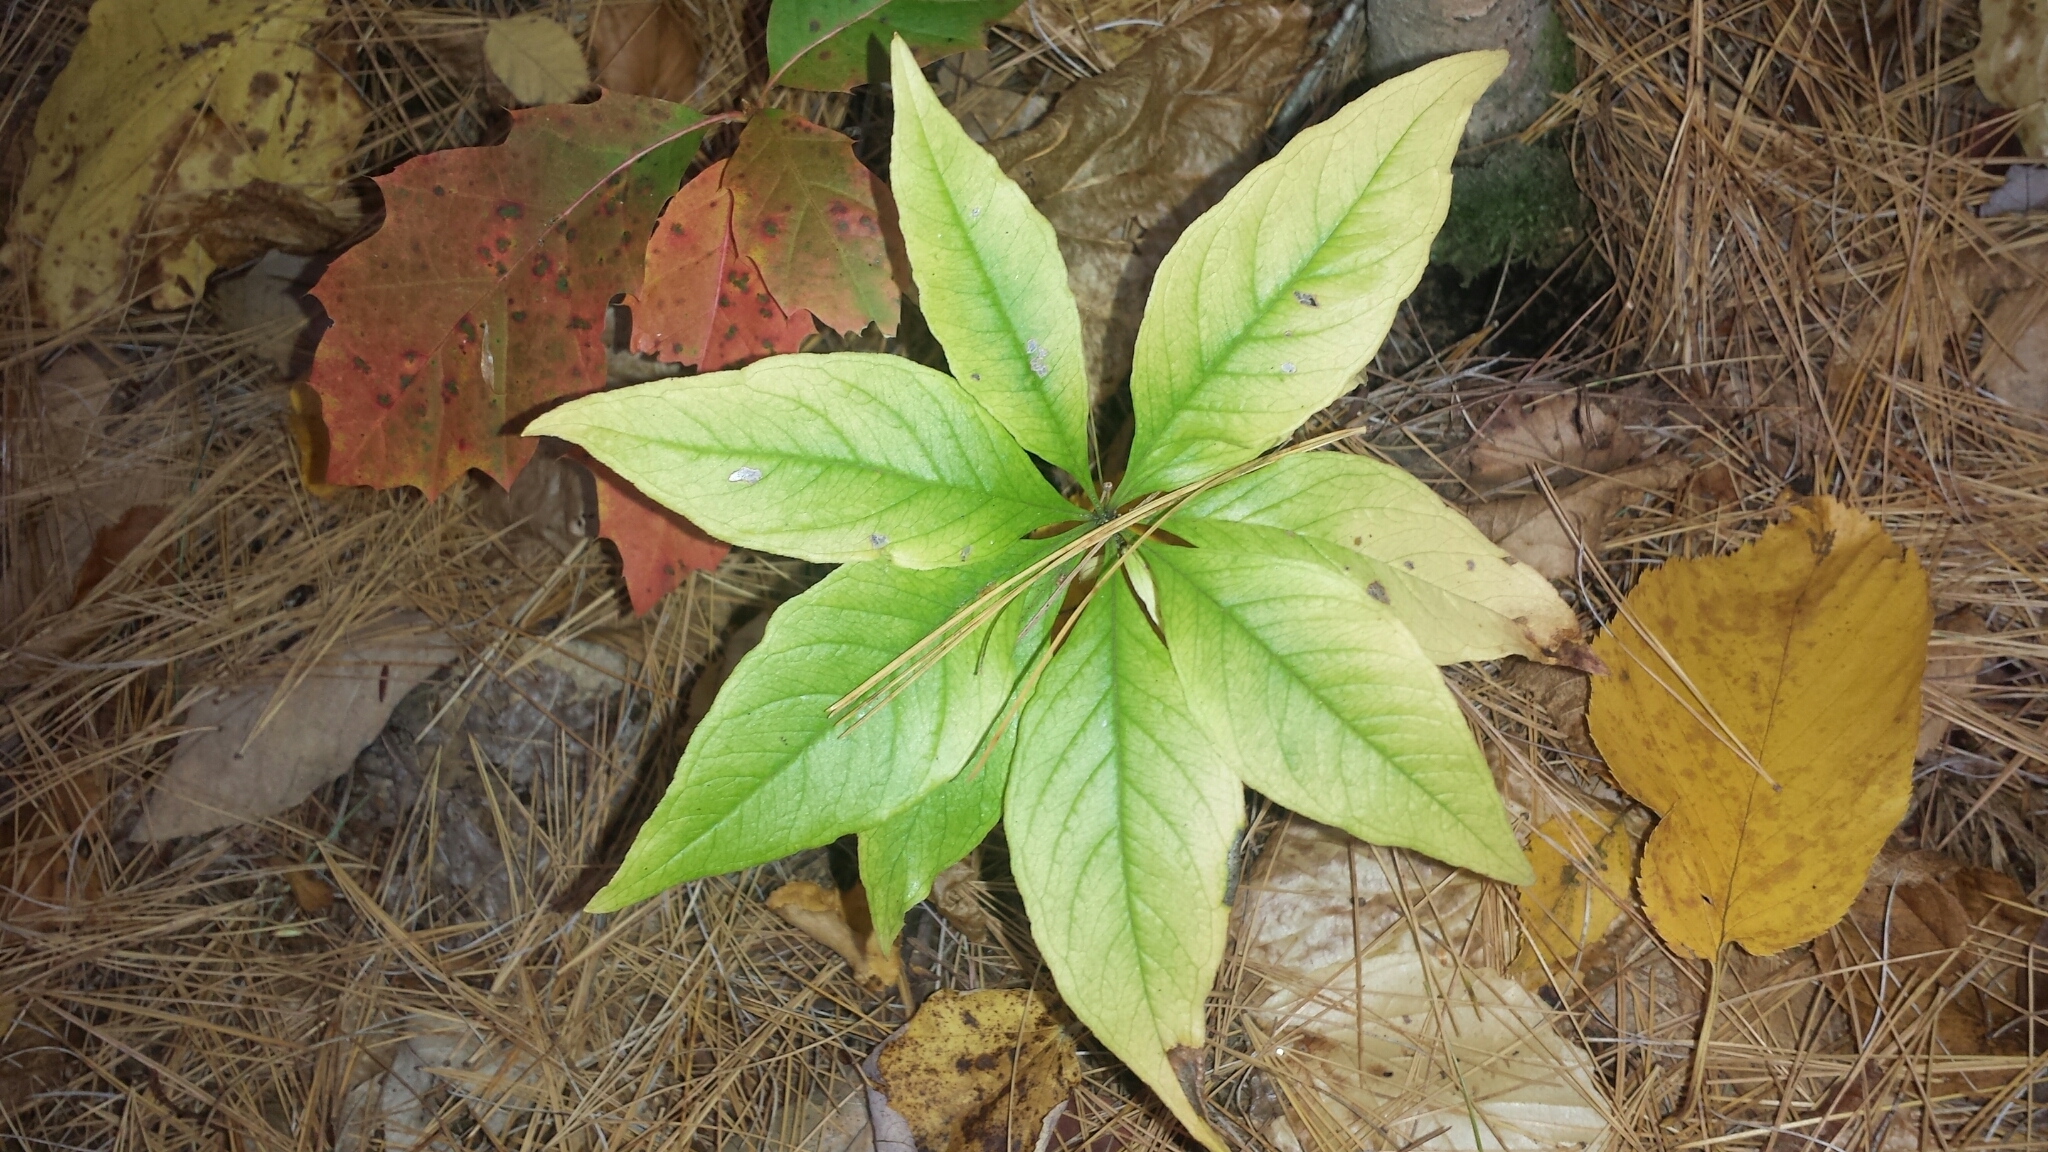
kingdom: Plantae
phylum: Tracheophyta
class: Magnoliopsida
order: Ericales
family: Primulaceae
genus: Lysimachia
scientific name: Lysimachia borealis
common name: American starflower
